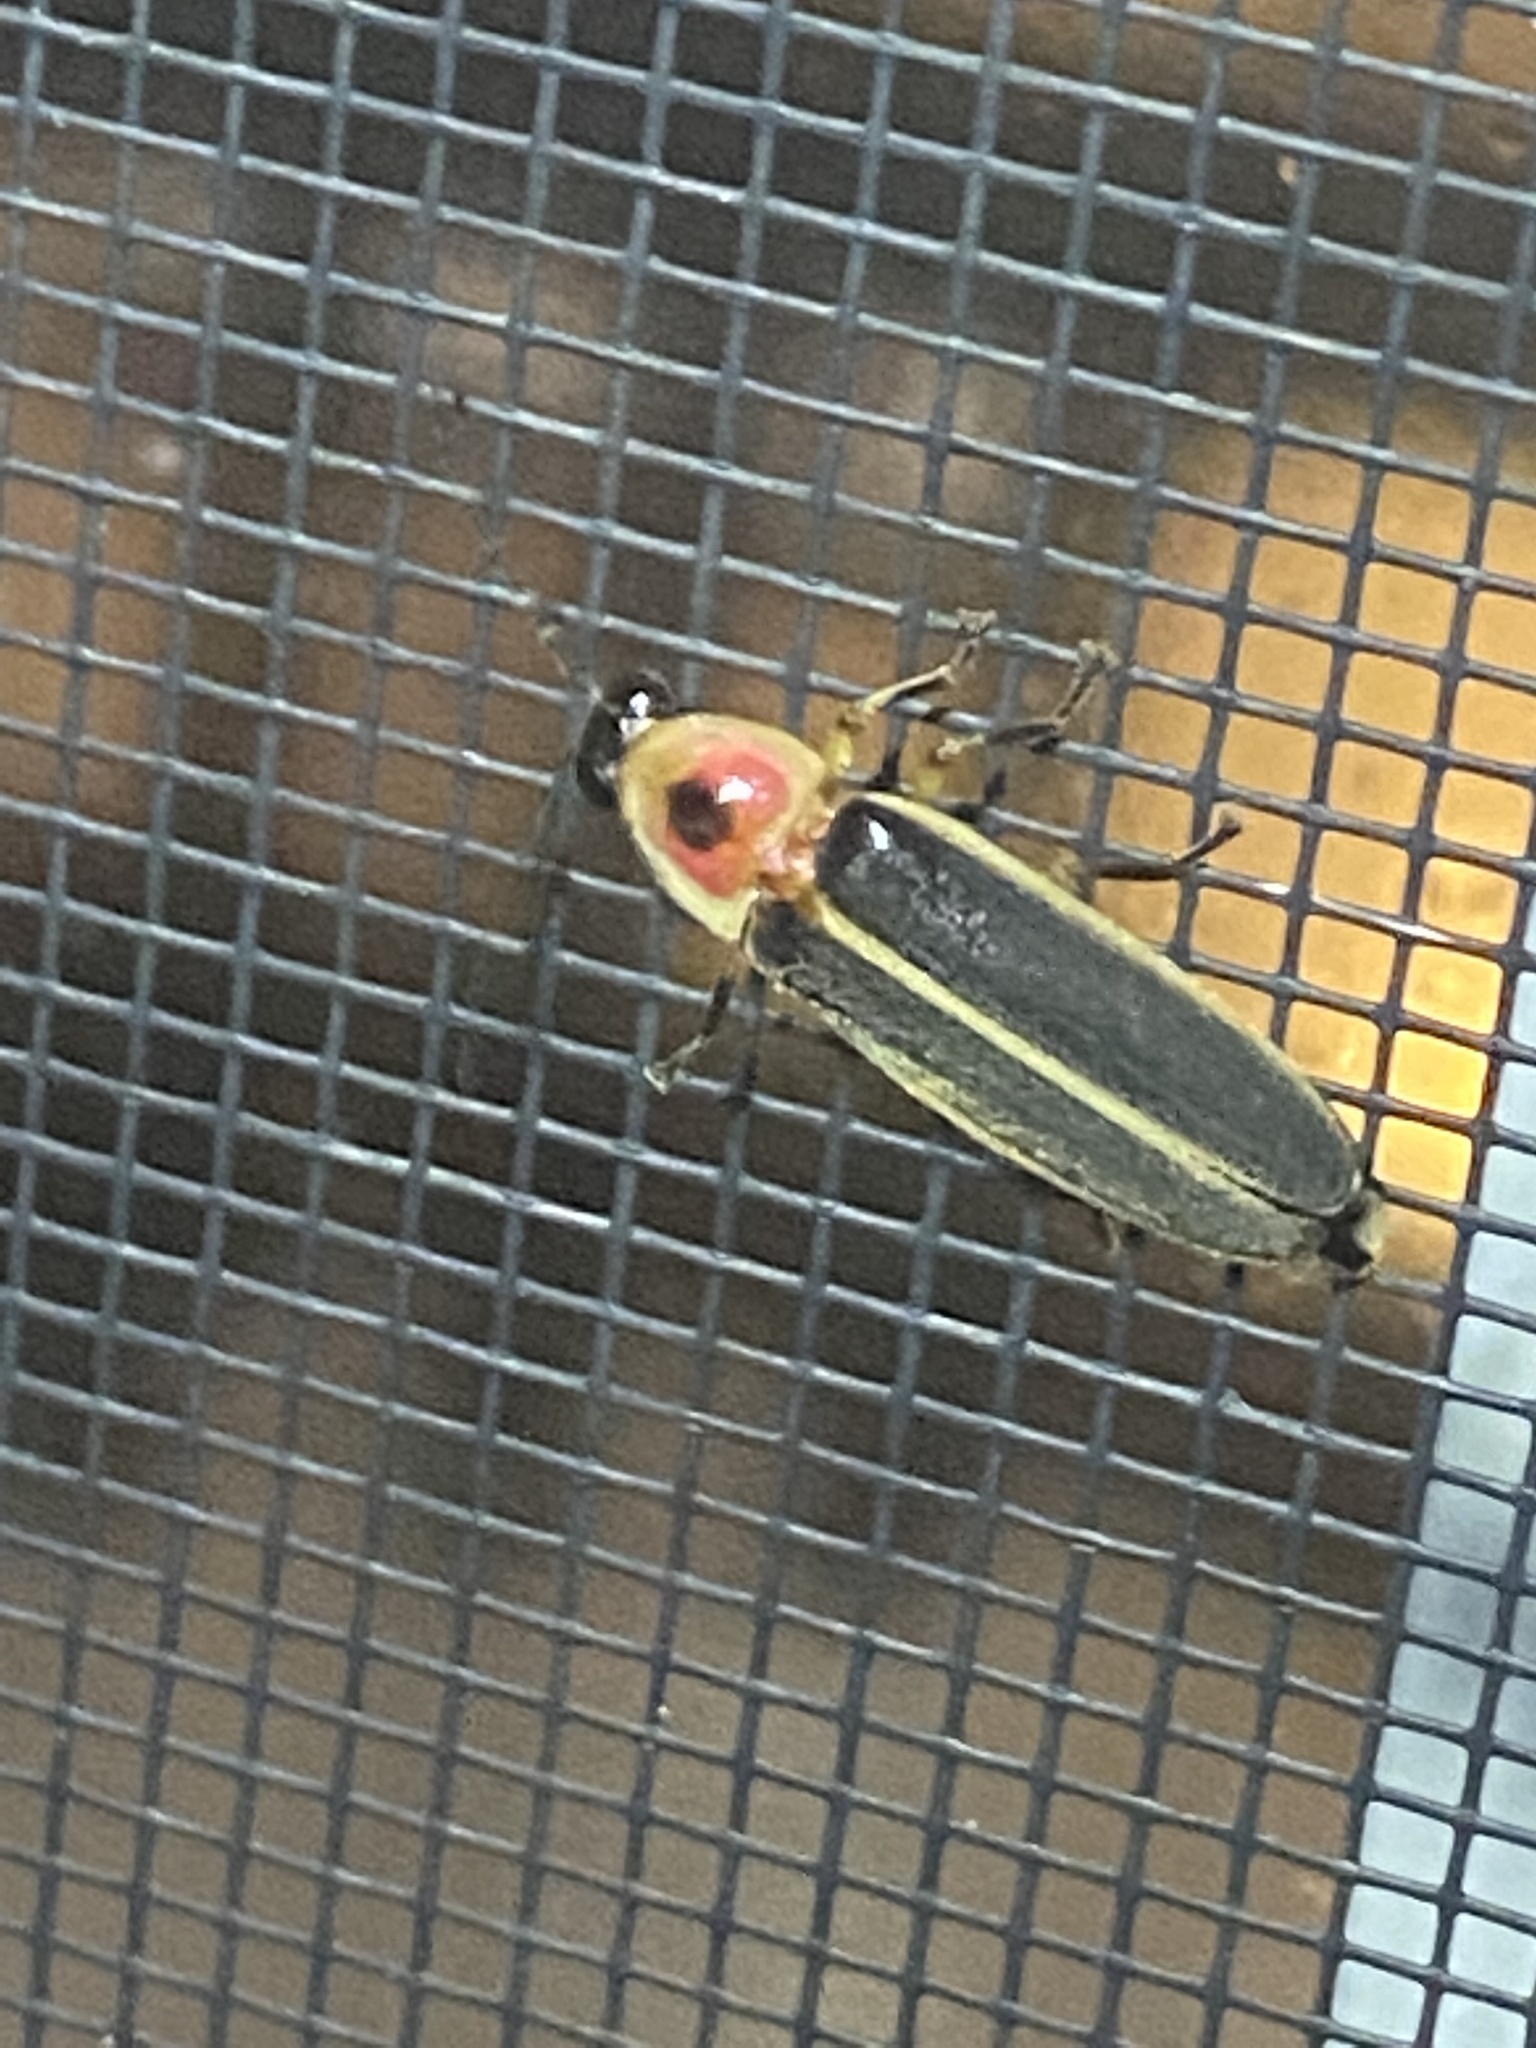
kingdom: Animalia
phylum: Arthropoda
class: Insecta
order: Coleoptera
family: Lampyridae
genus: Photinus
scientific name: Photinus pyralis
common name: Big dipper firefly
